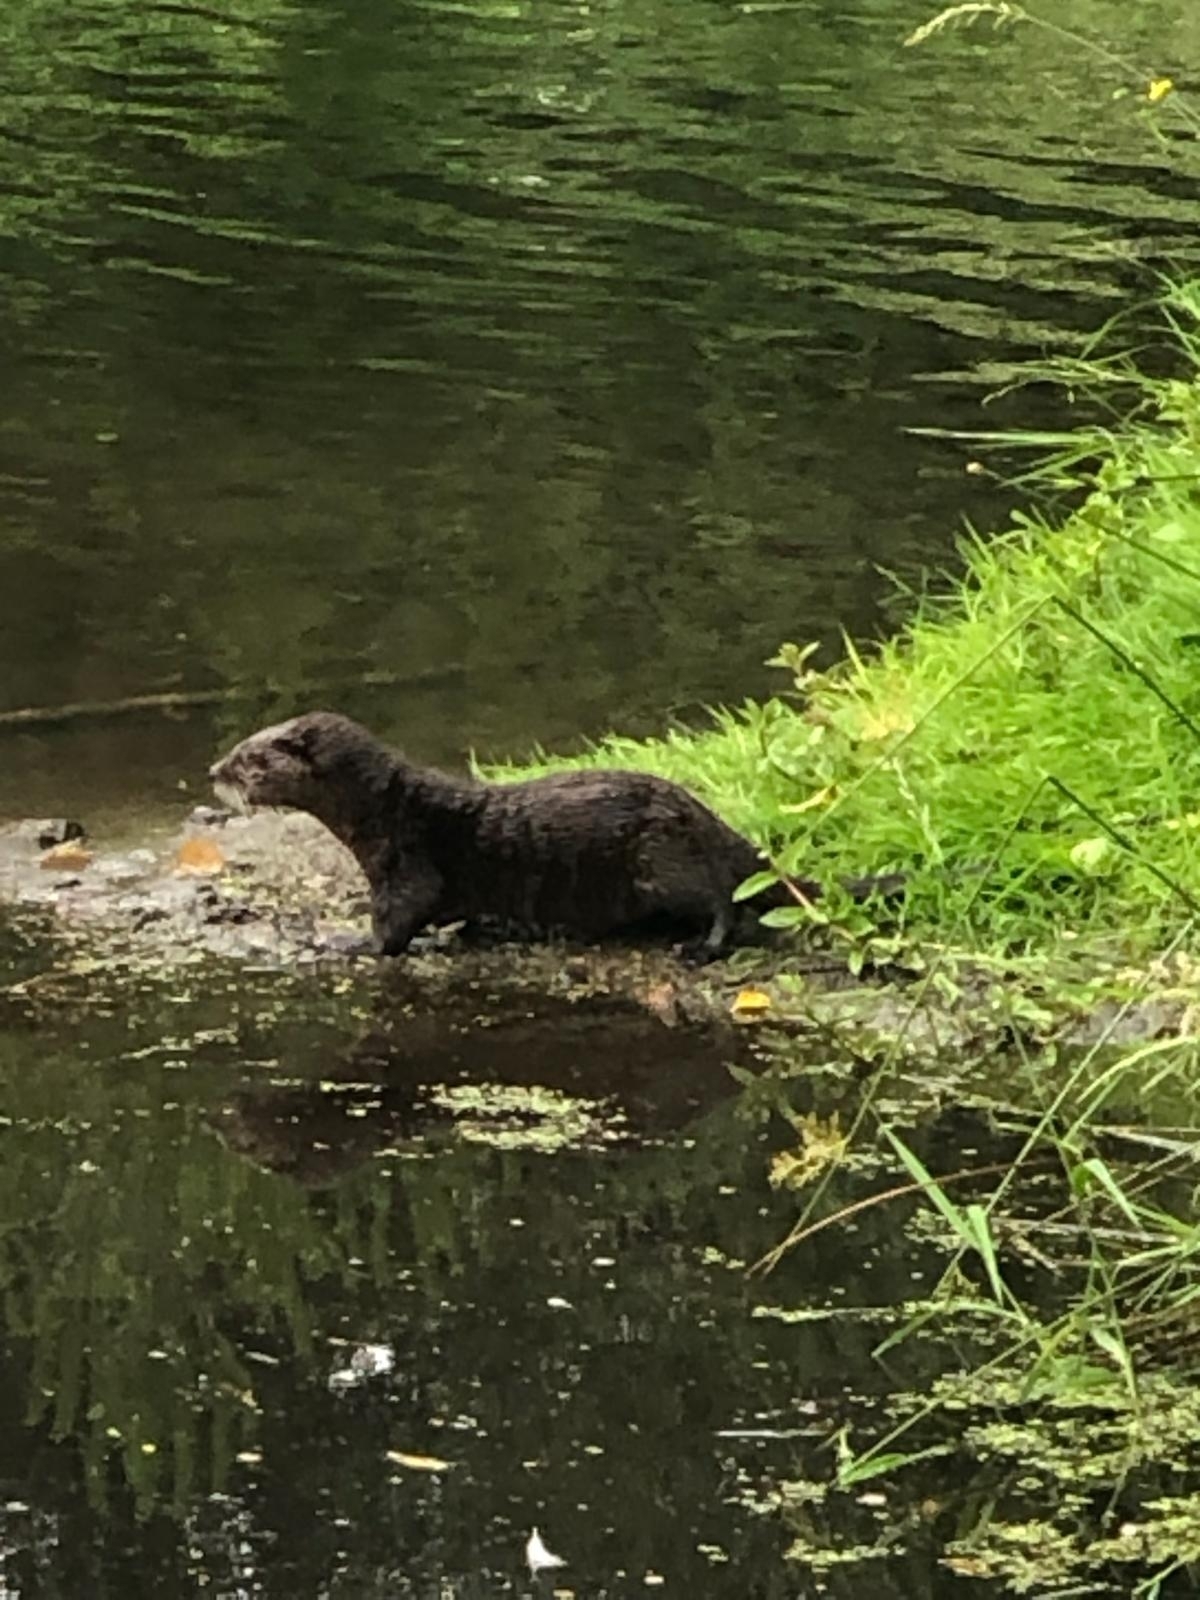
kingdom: Animalia
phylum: Chordata
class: Mammalia
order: Carnivora
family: Mustelidae
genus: Lontra
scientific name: Lontra canadensis
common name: North american river otter
